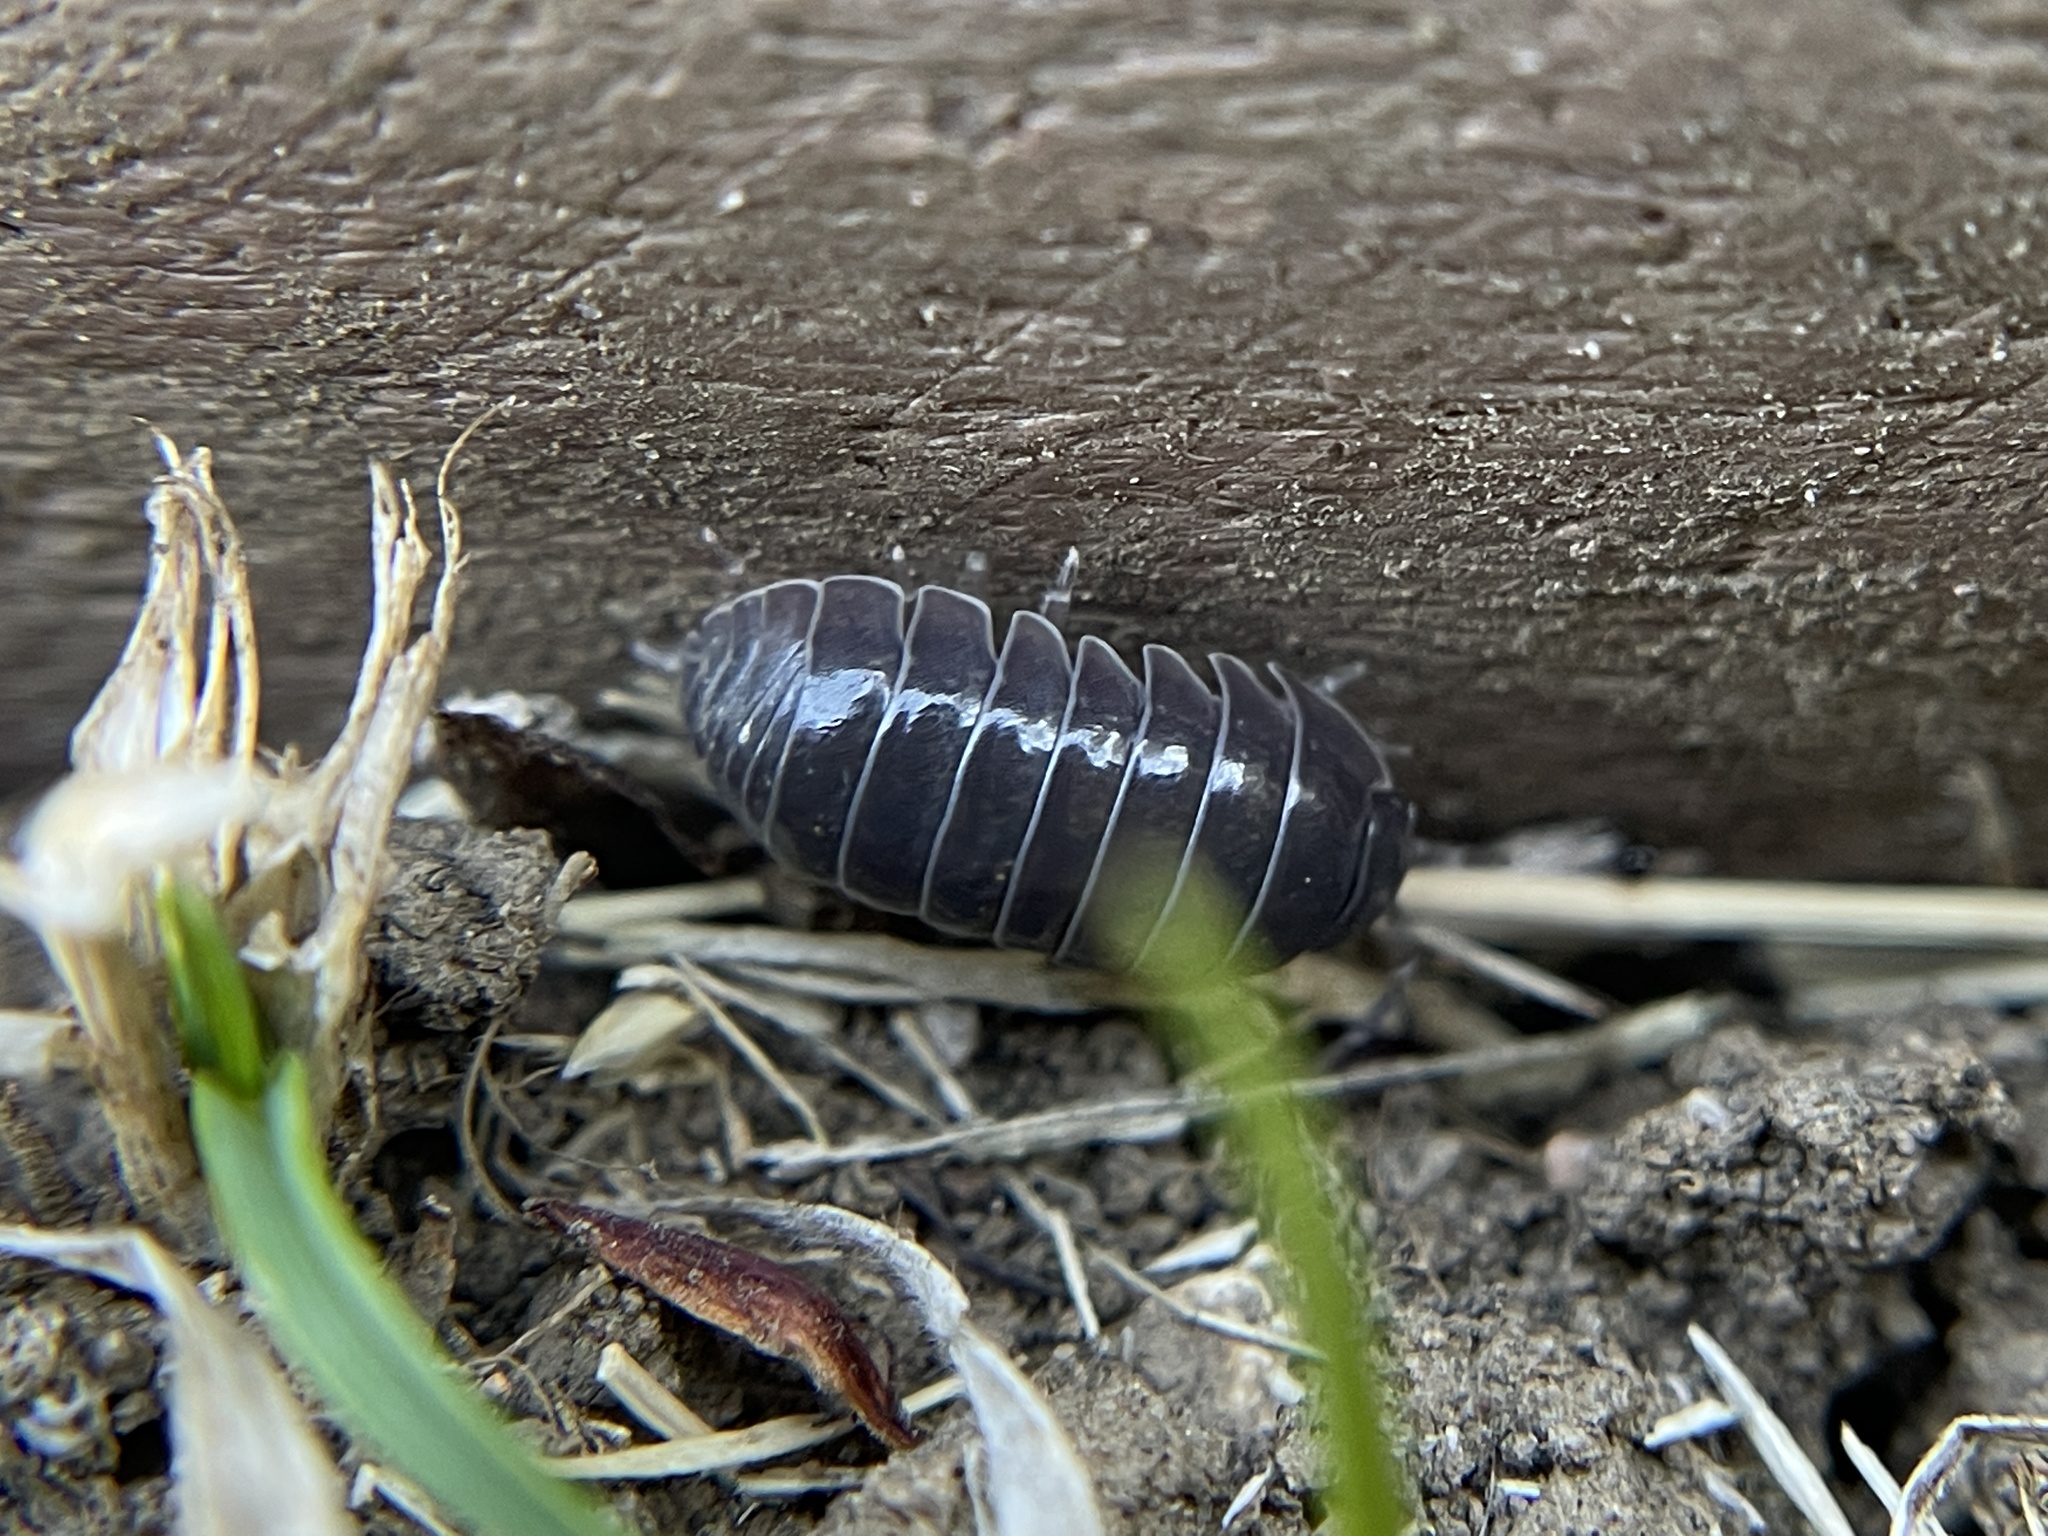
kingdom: Animalia
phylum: Arthropoda
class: Malacostraca
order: Isopoda
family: Armadillidiidae
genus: Armadillidium
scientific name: Armadillidium vulgare
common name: Common pill woodlouse
